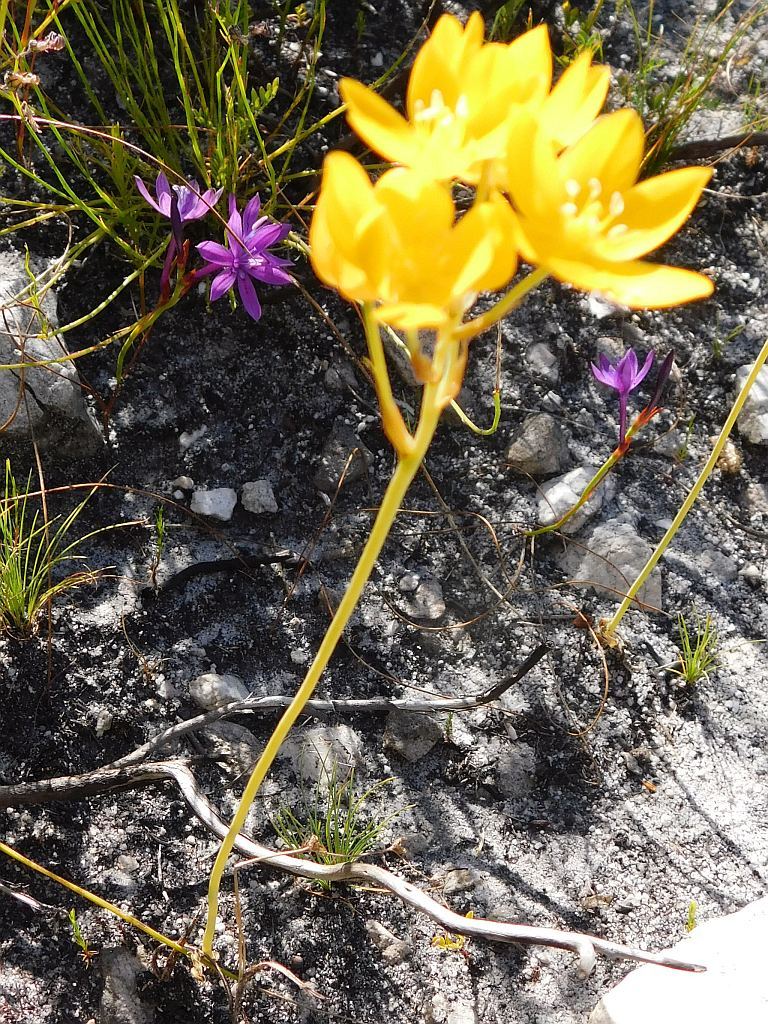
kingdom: Plantae
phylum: Tracheophyta
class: Liliopsida
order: Asparagales
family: Asparagaceae
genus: Ornithogalum
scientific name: Ornithogalum dubium
